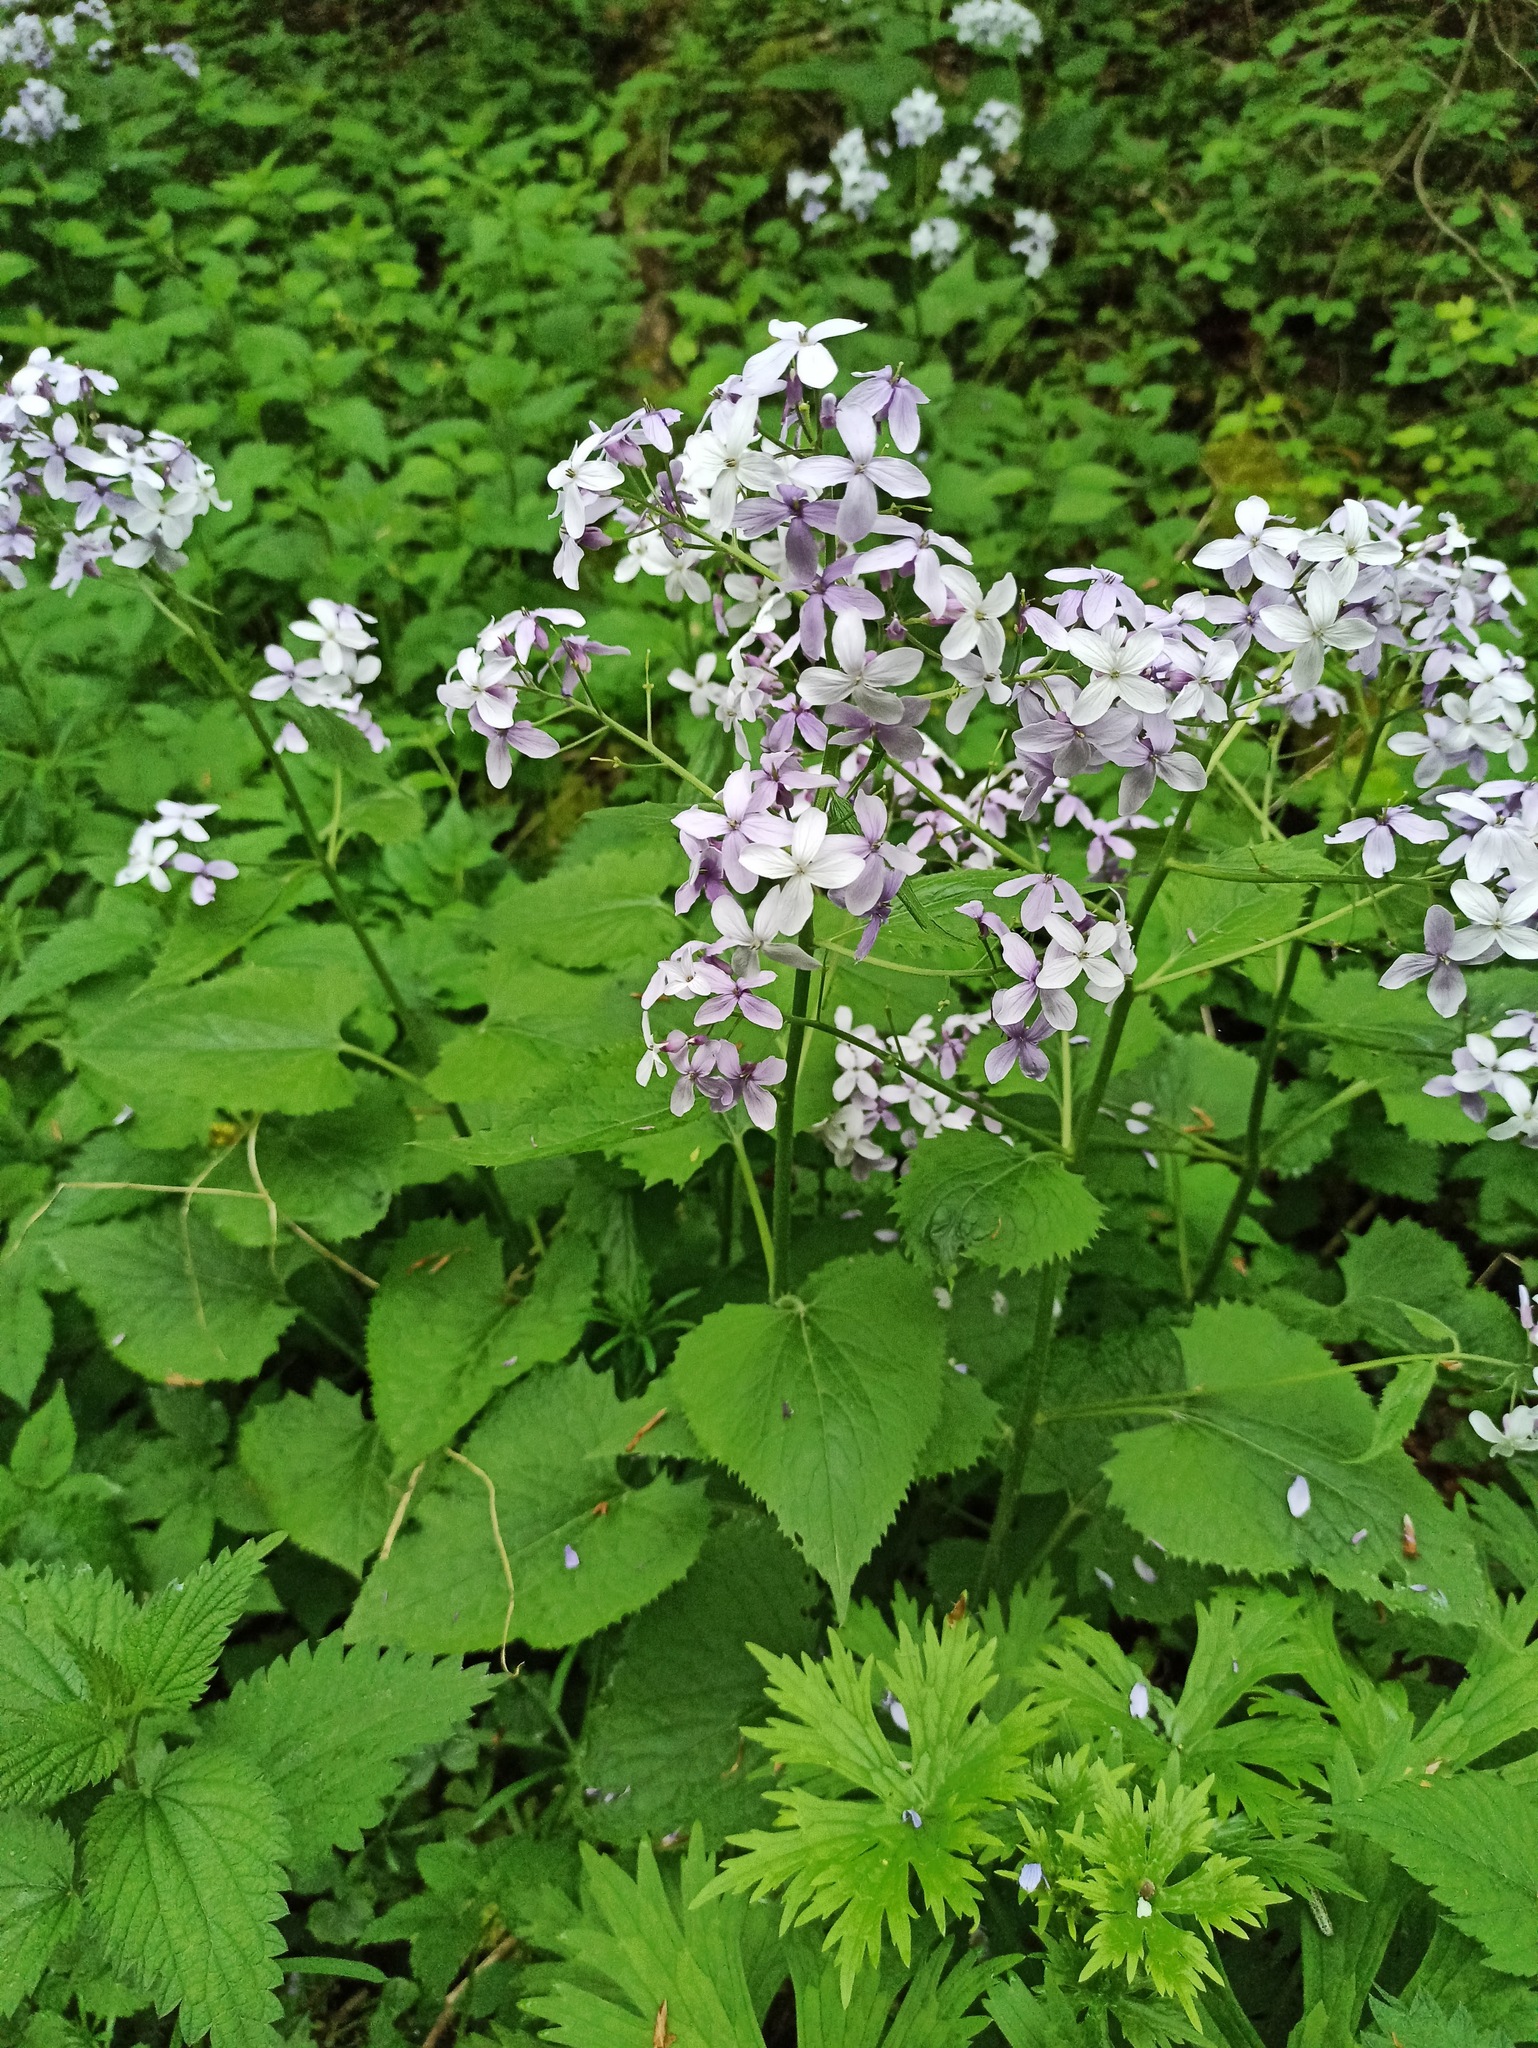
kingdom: Plantae
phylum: Tracheophyta
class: Magnoliopsida
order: Brassicales
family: Brassicaceae
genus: Lunaria
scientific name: Lunaria rediviva
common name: Perennial honesty
